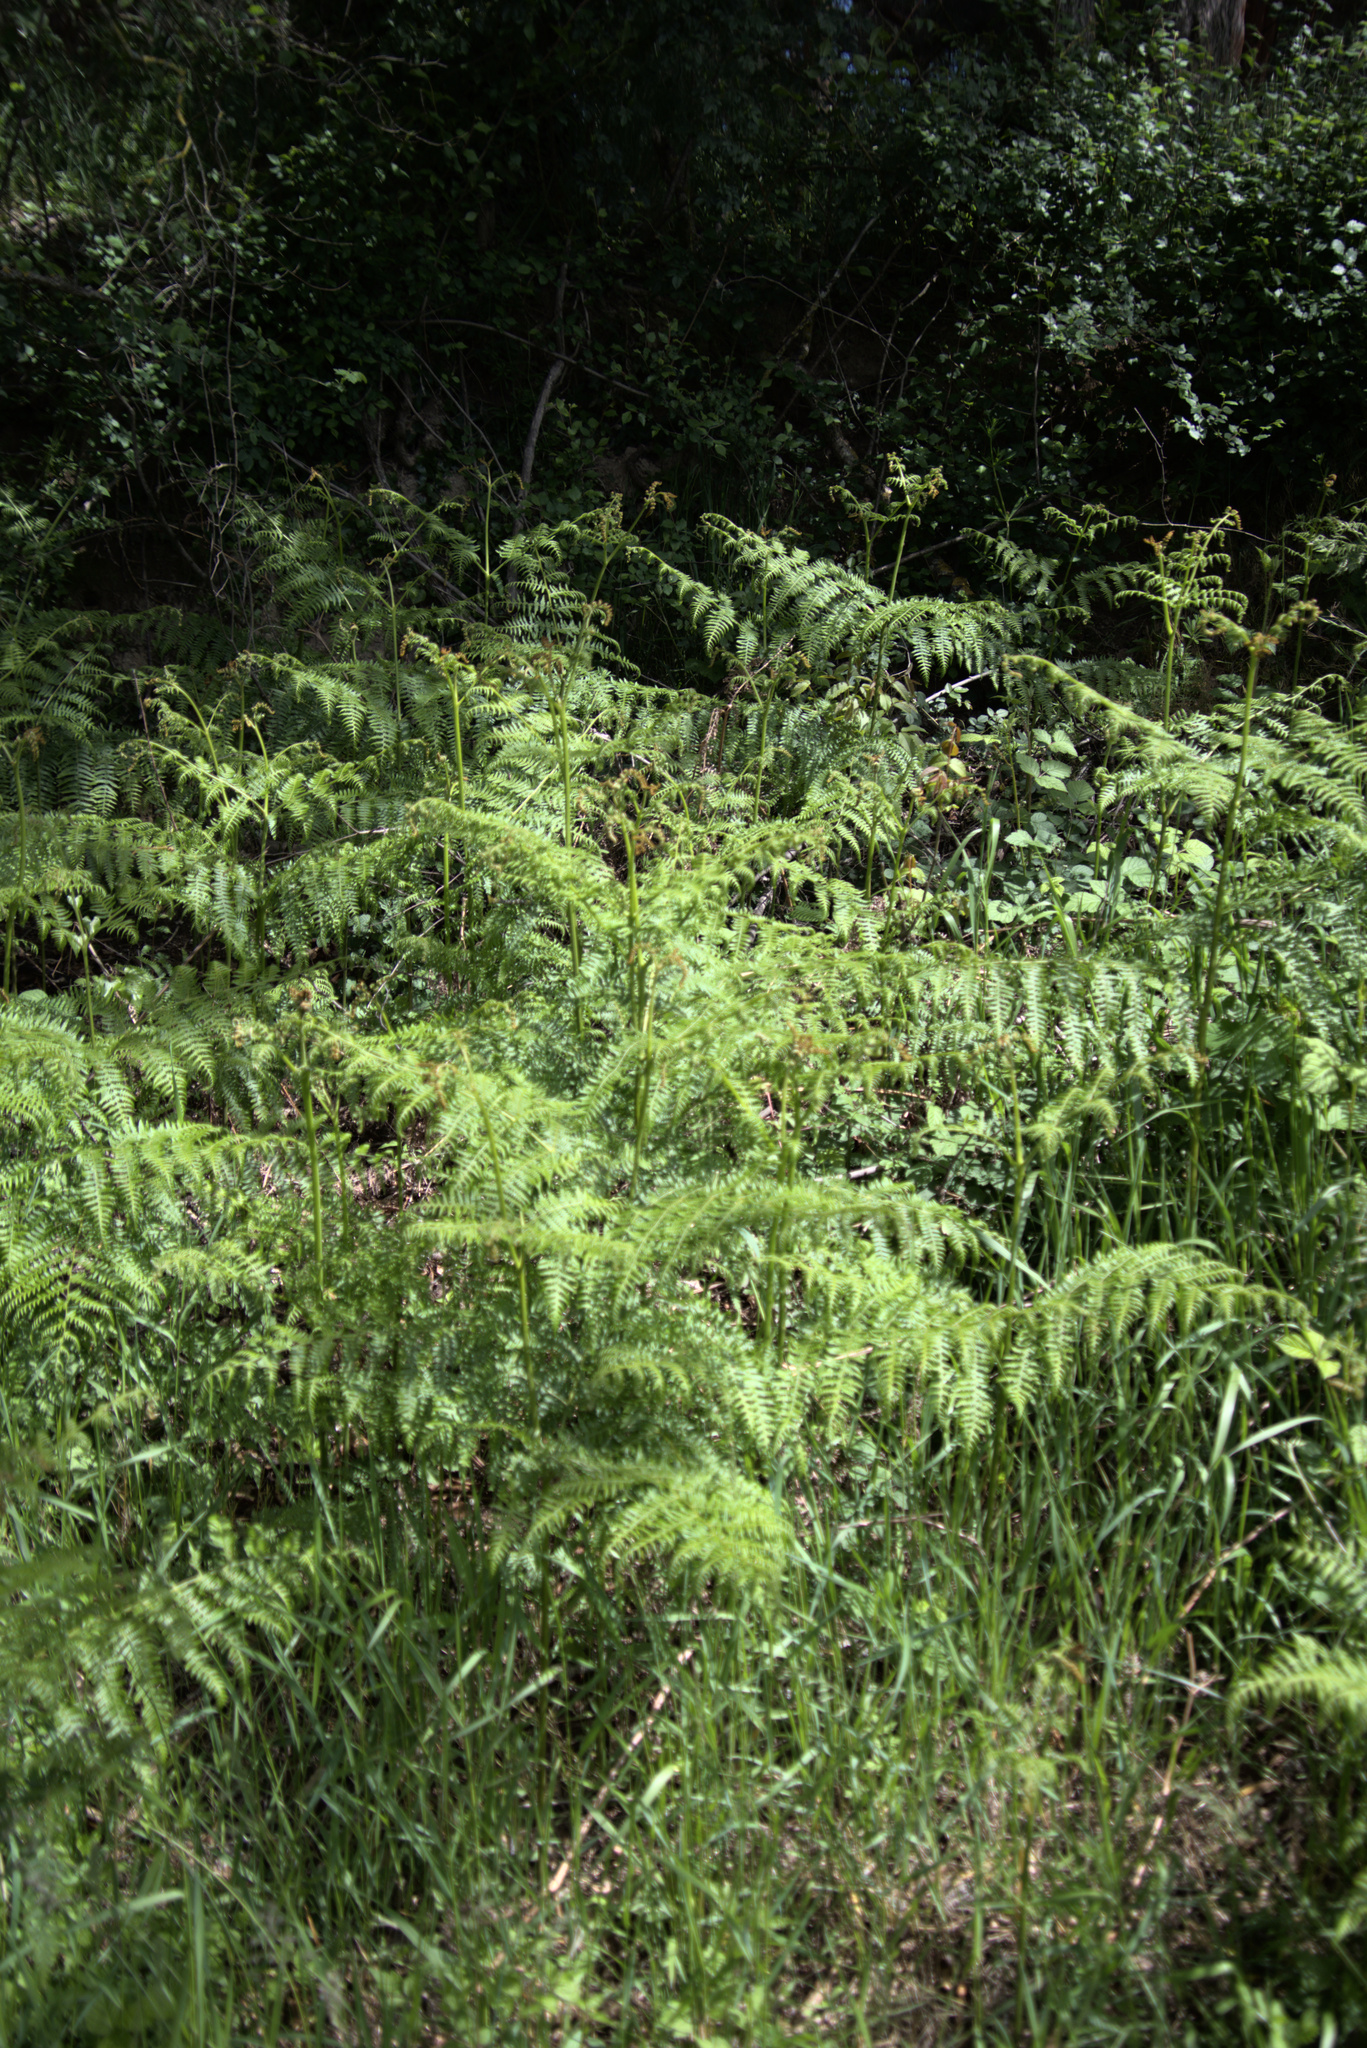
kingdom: Plantae
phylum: Tracheophyta
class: Polypodiopsida
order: Polypodiales
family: Dennstaedtiaceae
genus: Pteridium
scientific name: Pteridium aquilinum
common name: Bracken
